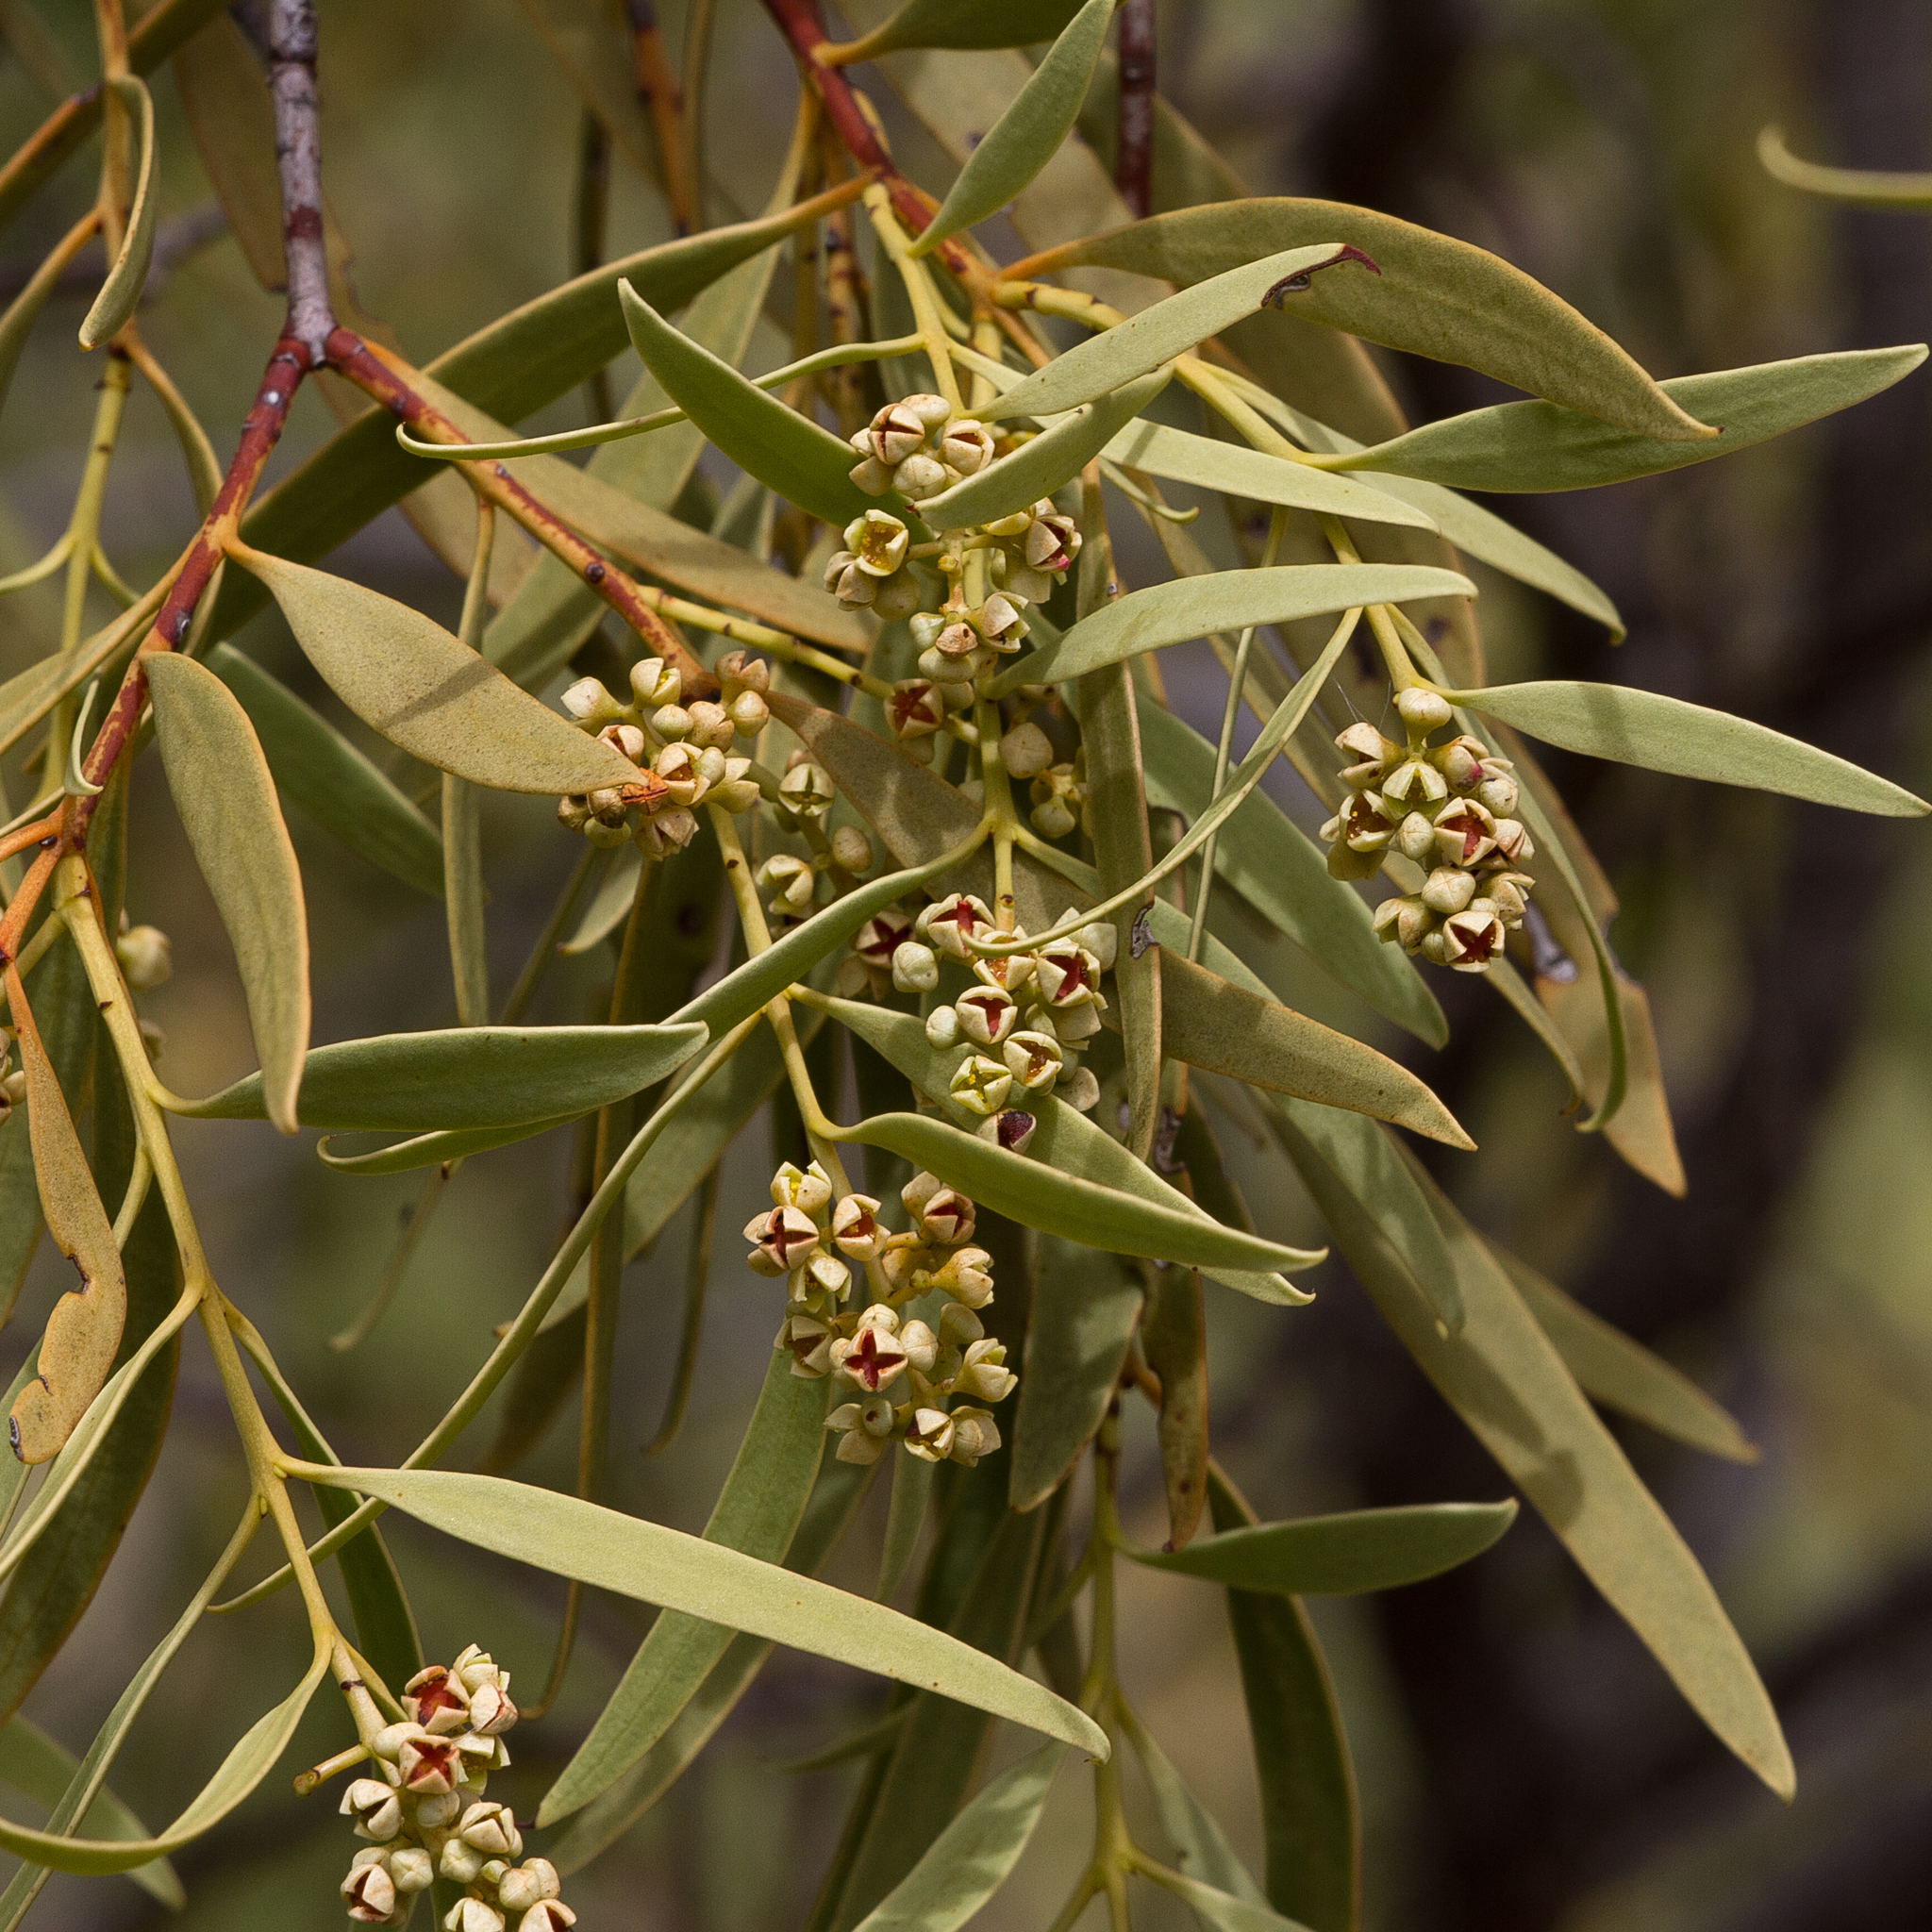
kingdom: Plantae
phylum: Tracheophyta
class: Magnoliopsida
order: Santalales
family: Santalaceae
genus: Santalum
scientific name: Santalum acuminatum
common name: Sweet quandong
